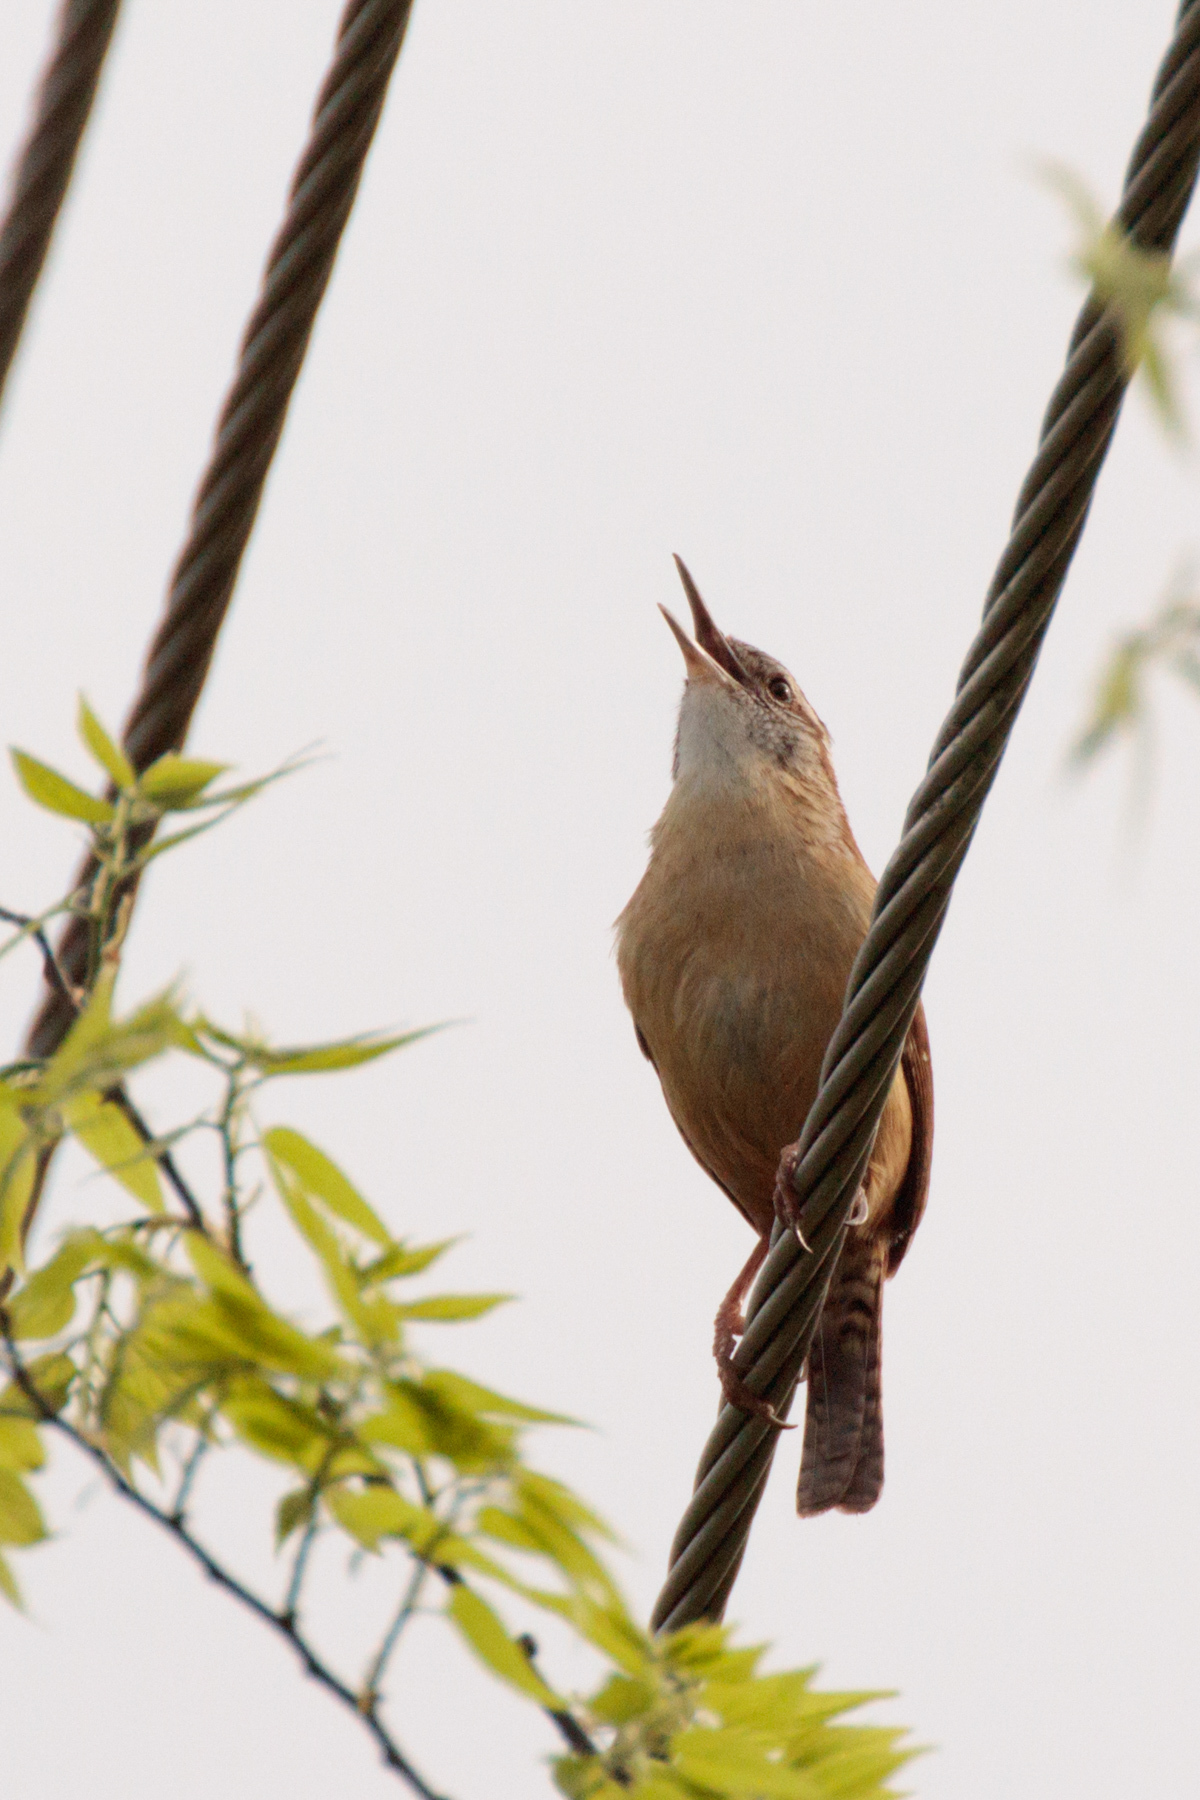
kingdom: Animalia
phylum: Chordata
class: Aves
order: Passeriformes
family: Troglodytidae
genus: Thryothorus
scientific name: Thryothorus ludovicianus
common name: Carolina wren
